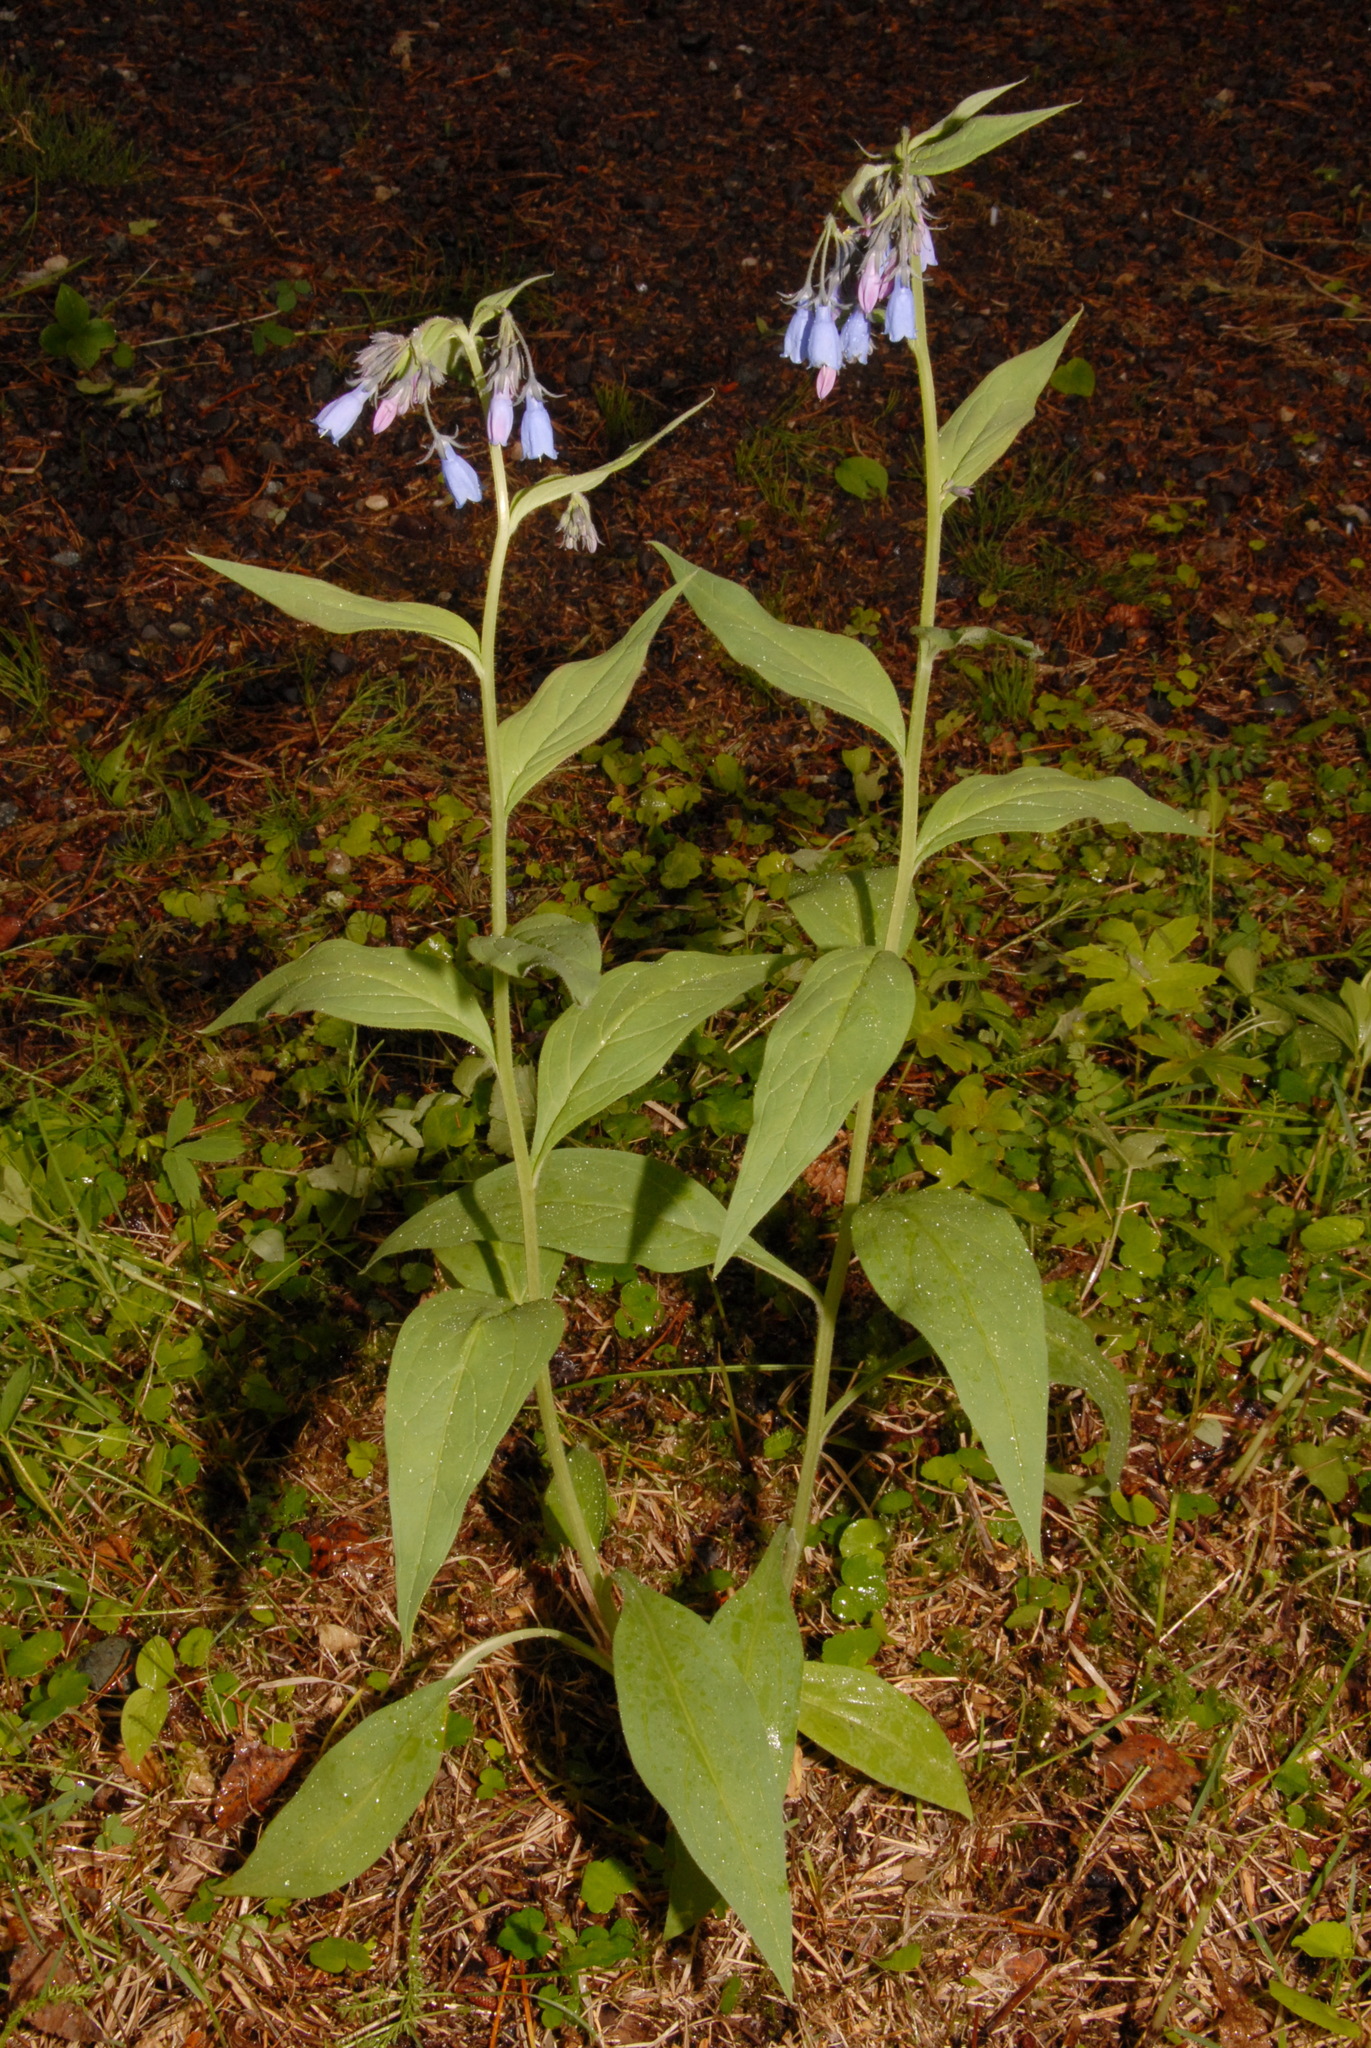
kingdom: Plantae
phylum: Tracheophyta
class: Magnoliopsida
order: Boraginales
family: Boraginaceae
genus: Mertensia
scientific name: Mertensia paniculata
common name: Panicled bluebells
